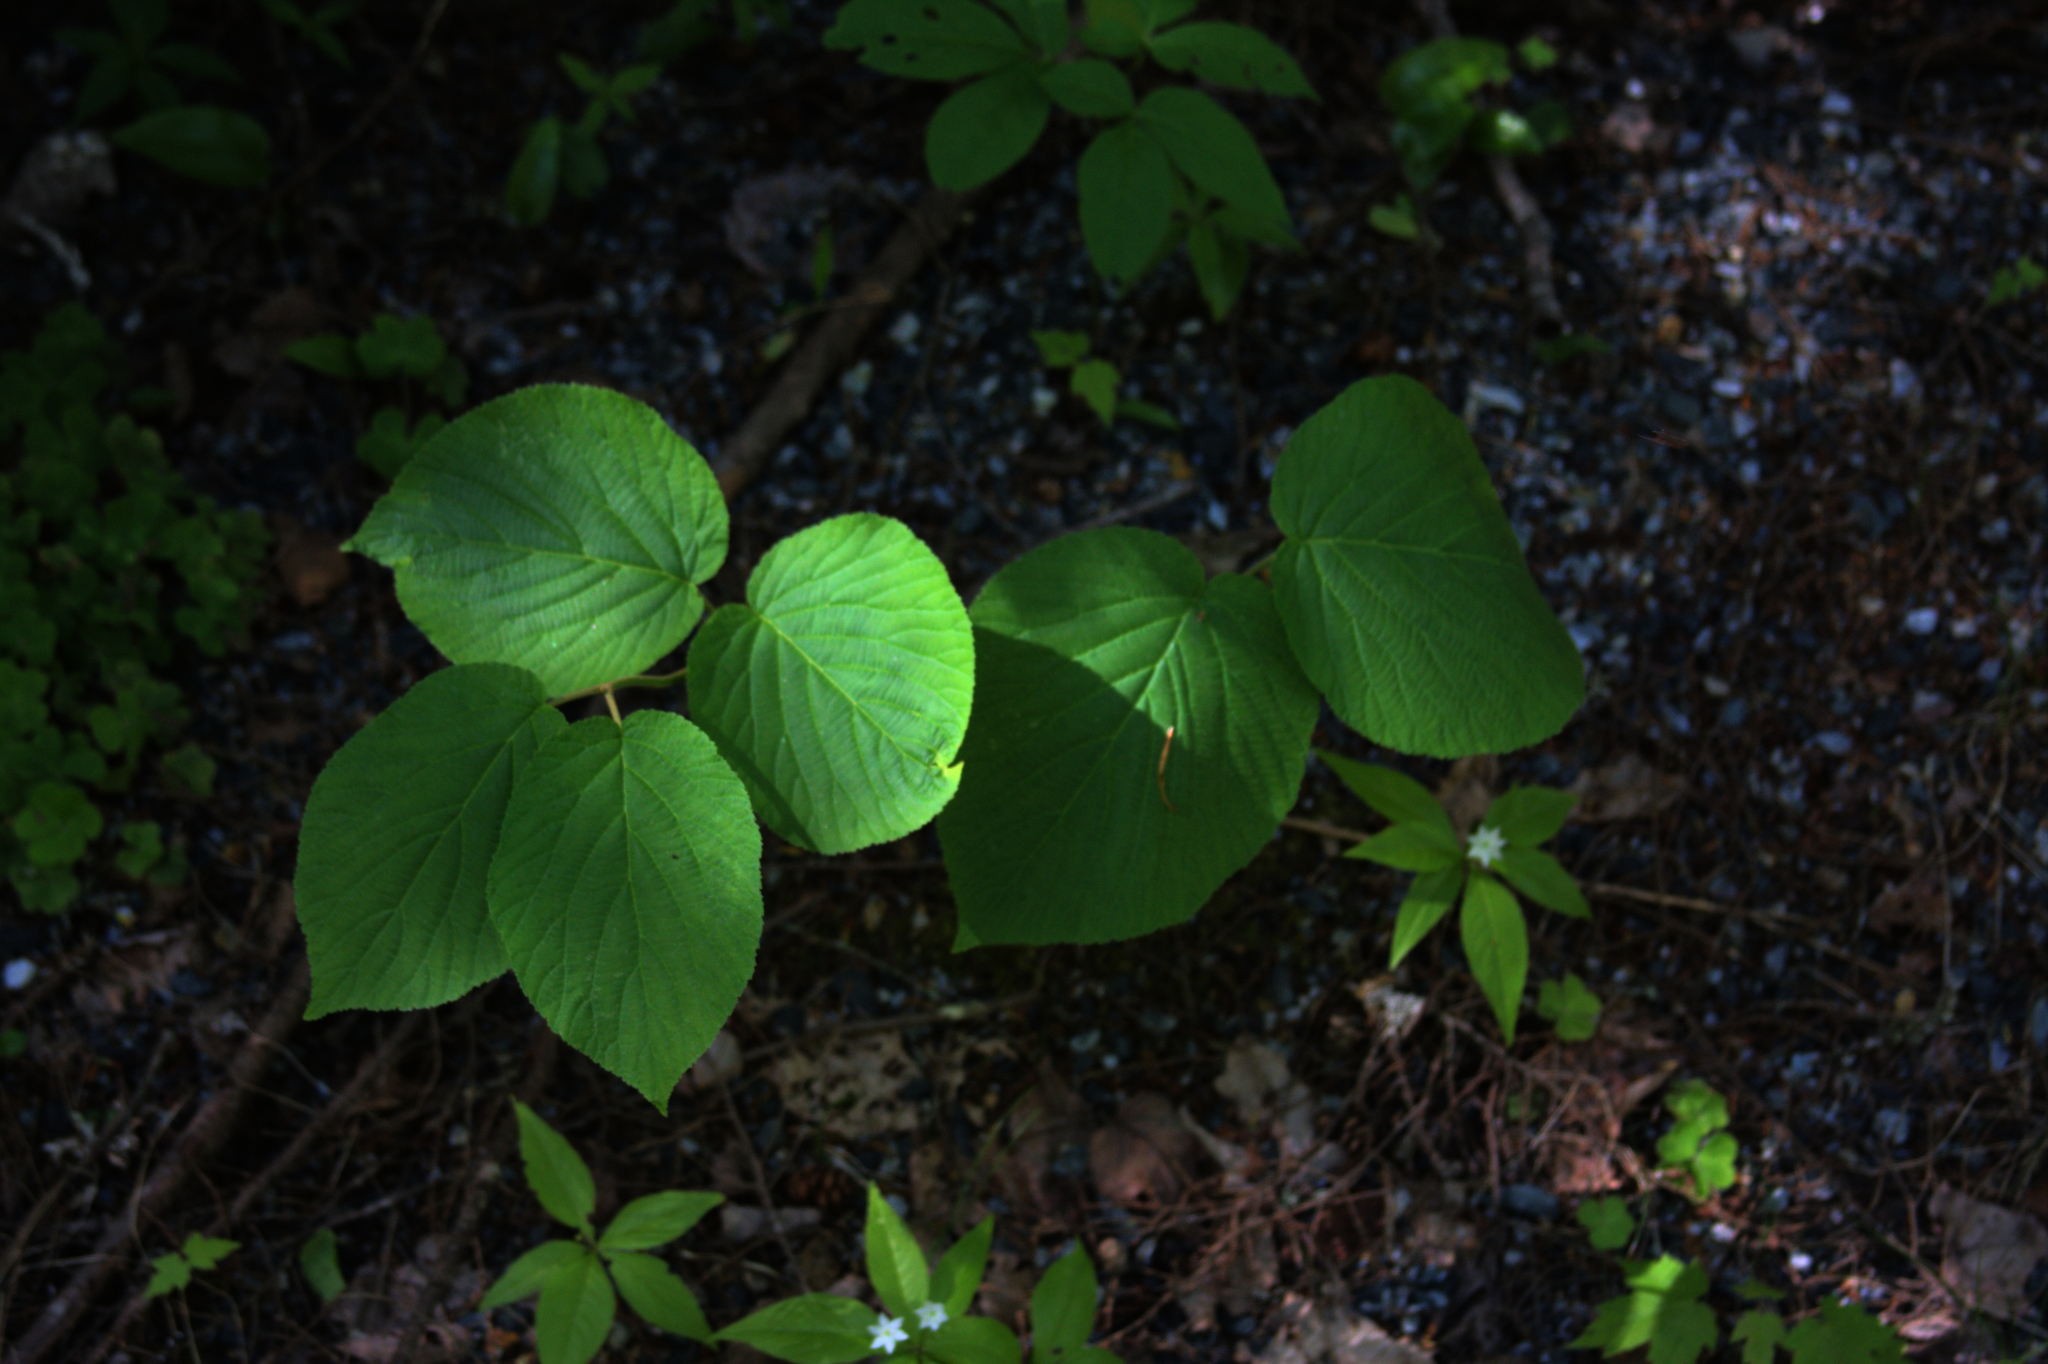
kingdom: Plantae
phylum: Tracheophyta
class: Magnoliopsida
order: Dipsacales
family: Viburnaceae
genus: Viburnum
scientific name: Viburnum lantanoides
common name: Hobblebush
